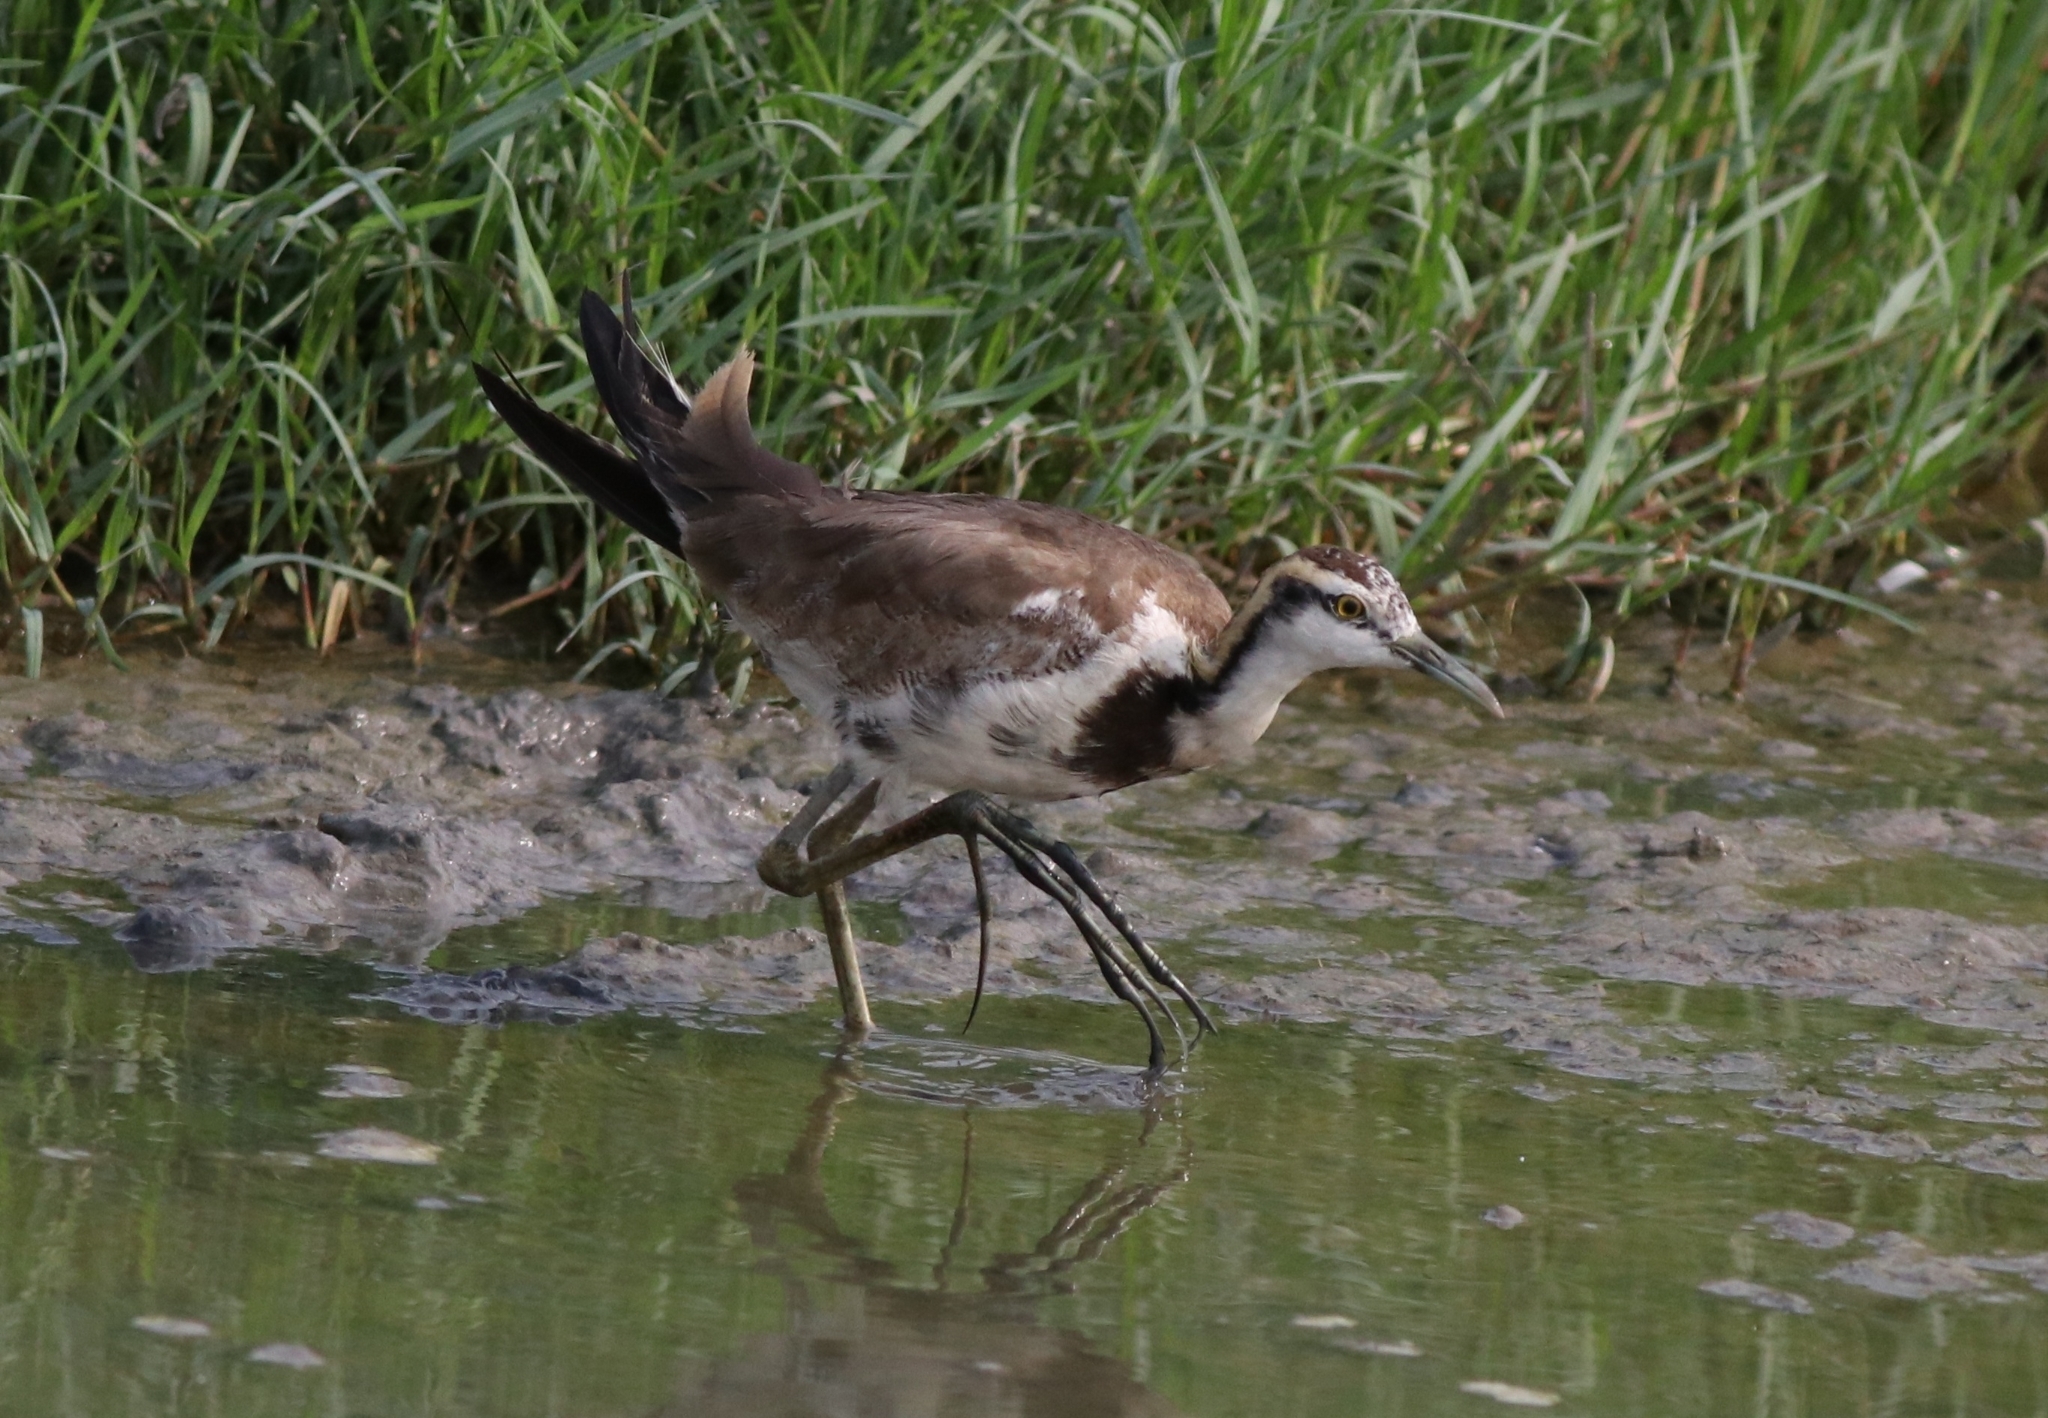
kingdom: Animalia
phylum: Chordata
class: Aves
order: Charadriiformes
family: Jacanidae
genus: Hydrophasianus
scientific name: Hydrophasianus chirurgus
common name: Pheasant-tailed jacana
